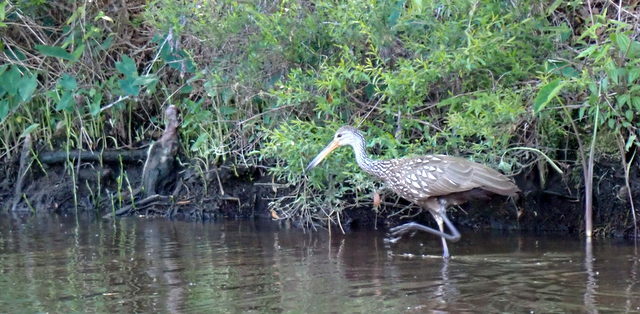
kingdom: Animalia
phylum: Chordata
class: Aves
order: Gruiformes
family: Aramidae
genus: Aramus
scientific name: Aramus guarauna
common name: Limpkin
